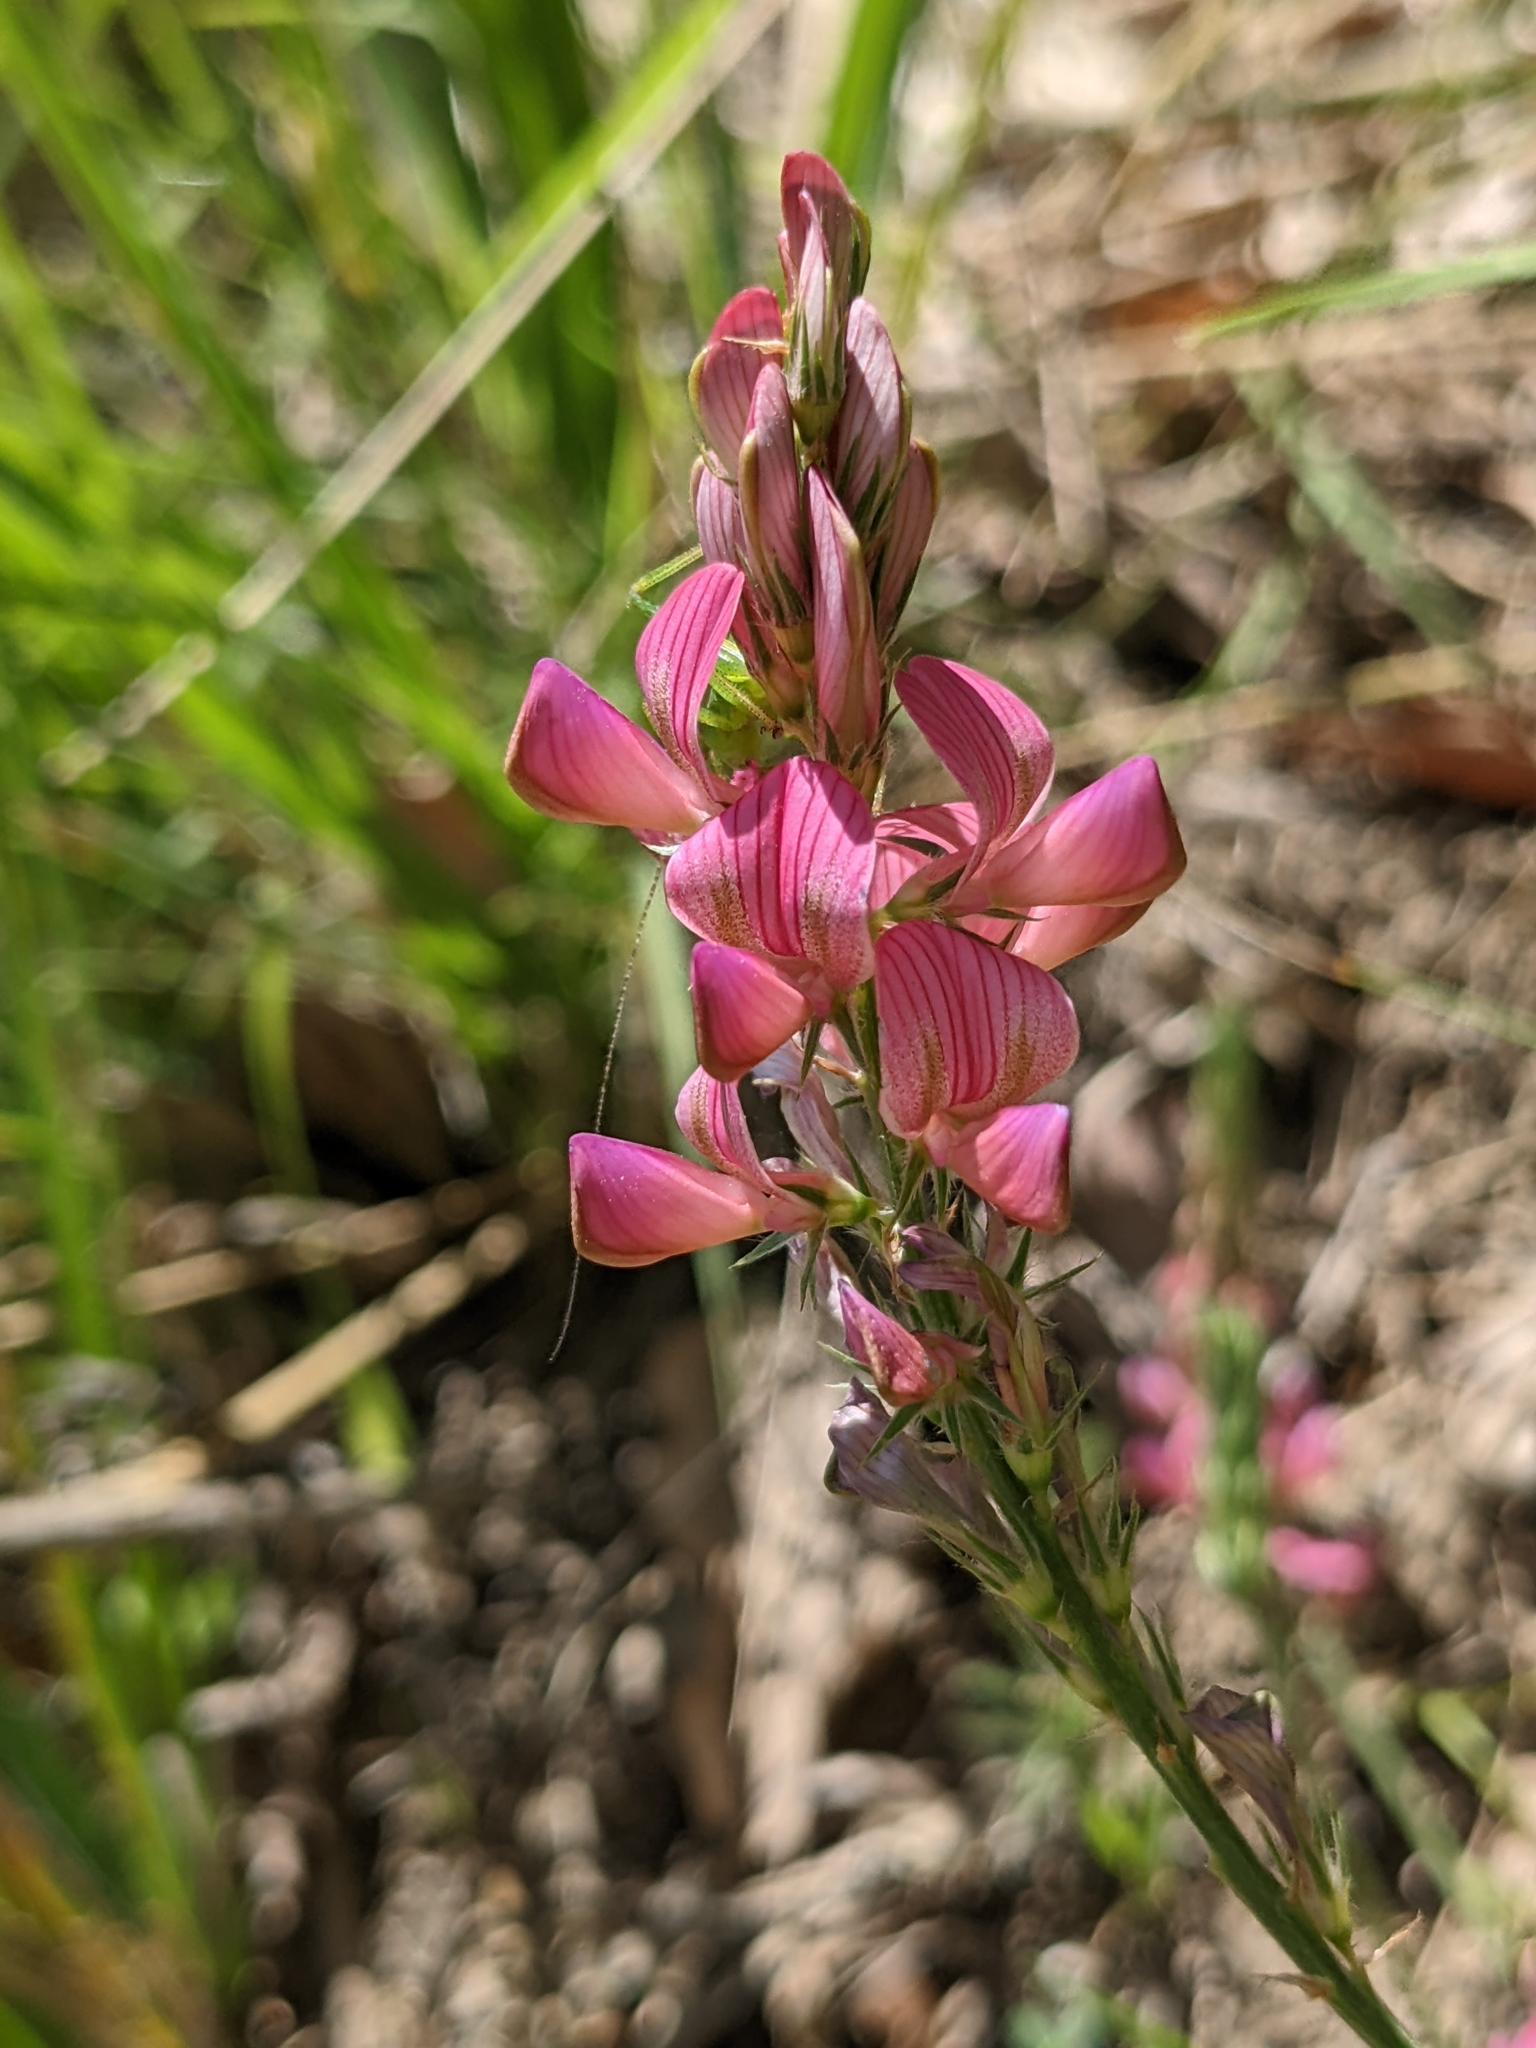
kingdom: Plantae
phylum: Tracheophyta
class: Magnoliopsida
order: Fabales
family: Fabaceae
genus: Onobrychis
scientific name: Onobrychis viciifolia
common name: Sainfoin
